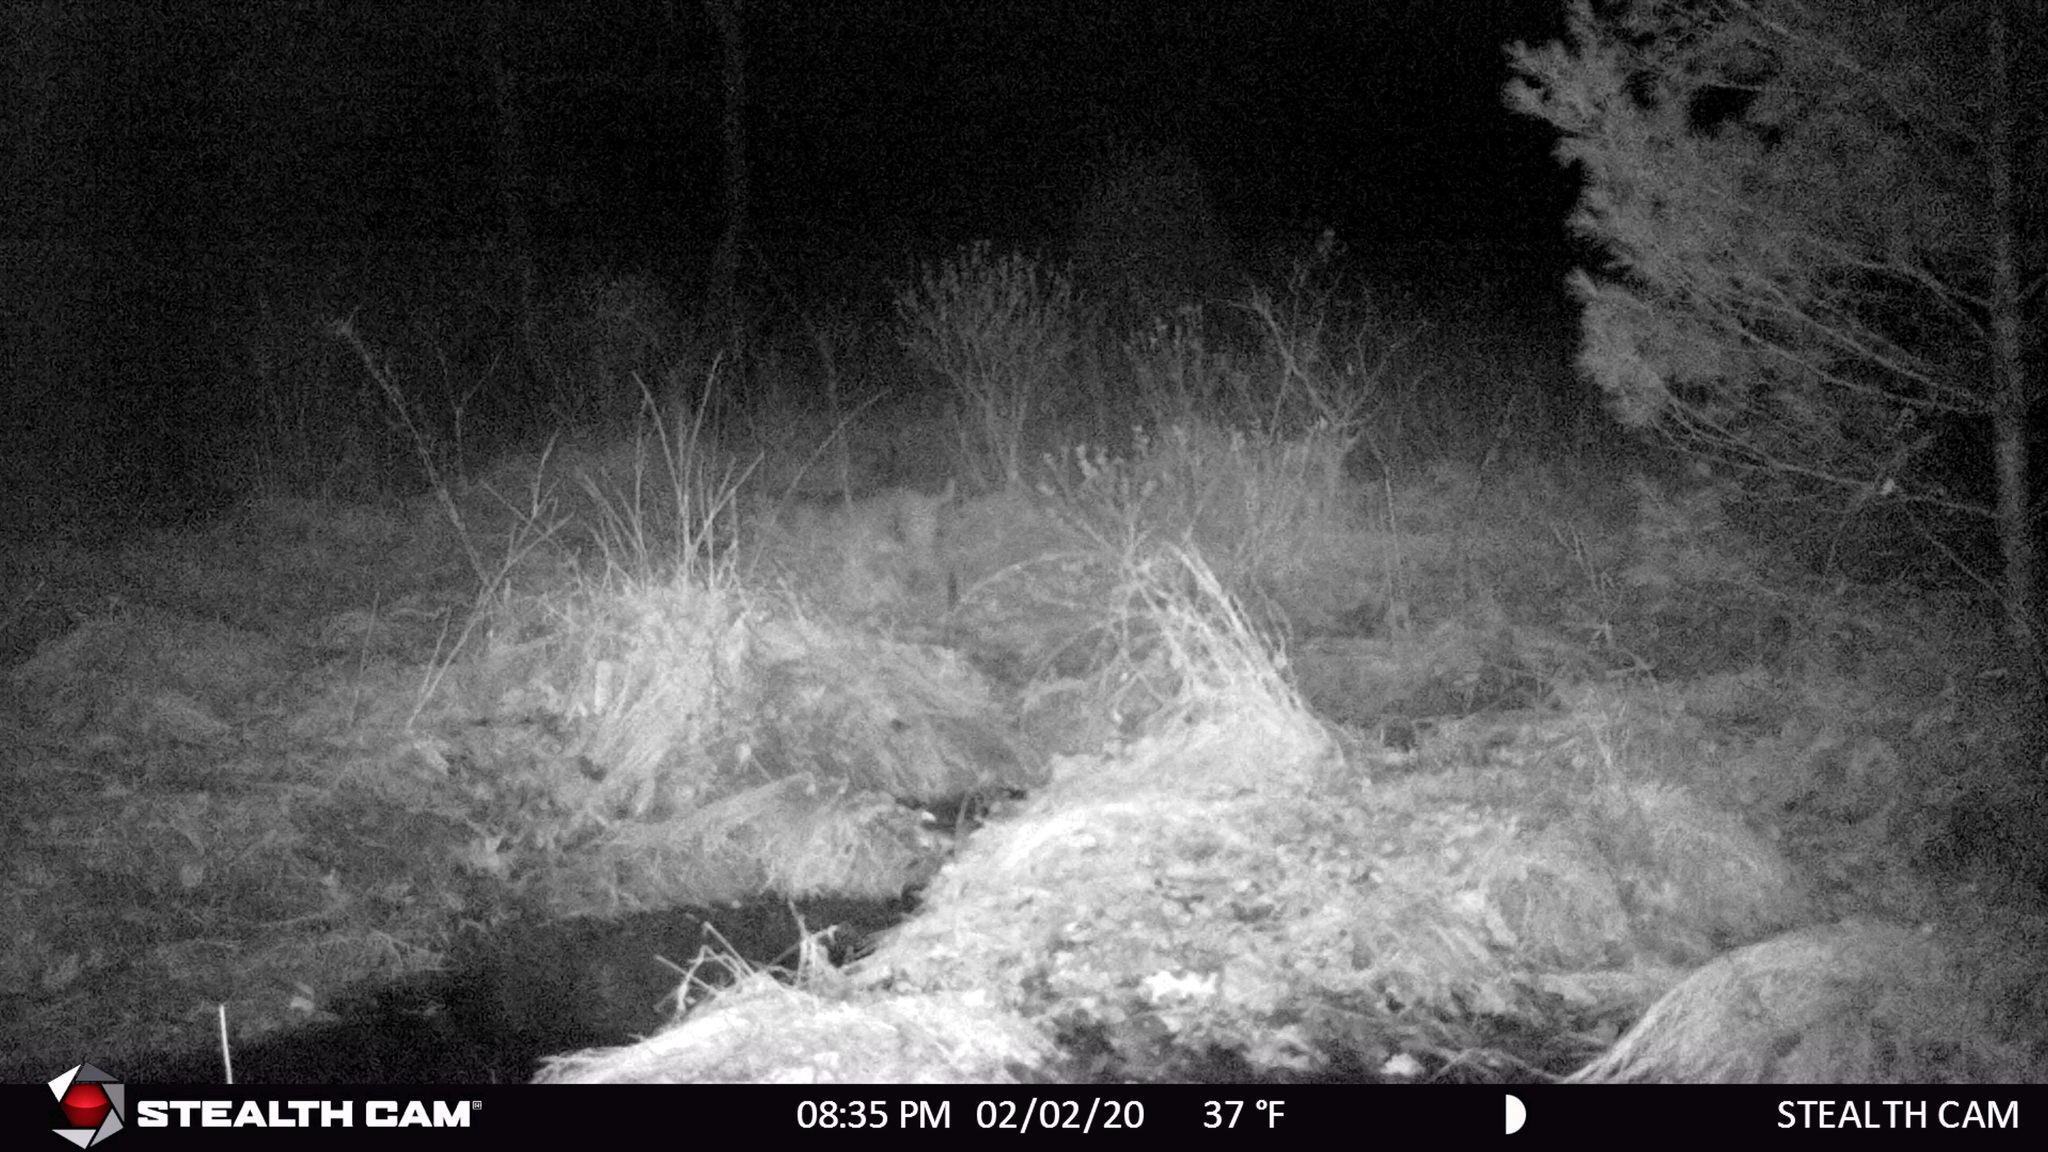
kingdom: Animalia
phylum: Chordata
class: Mammalia
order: Carnivora
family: Felidae
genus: Lynx
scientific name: Lynx rufus
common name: Bobcat
